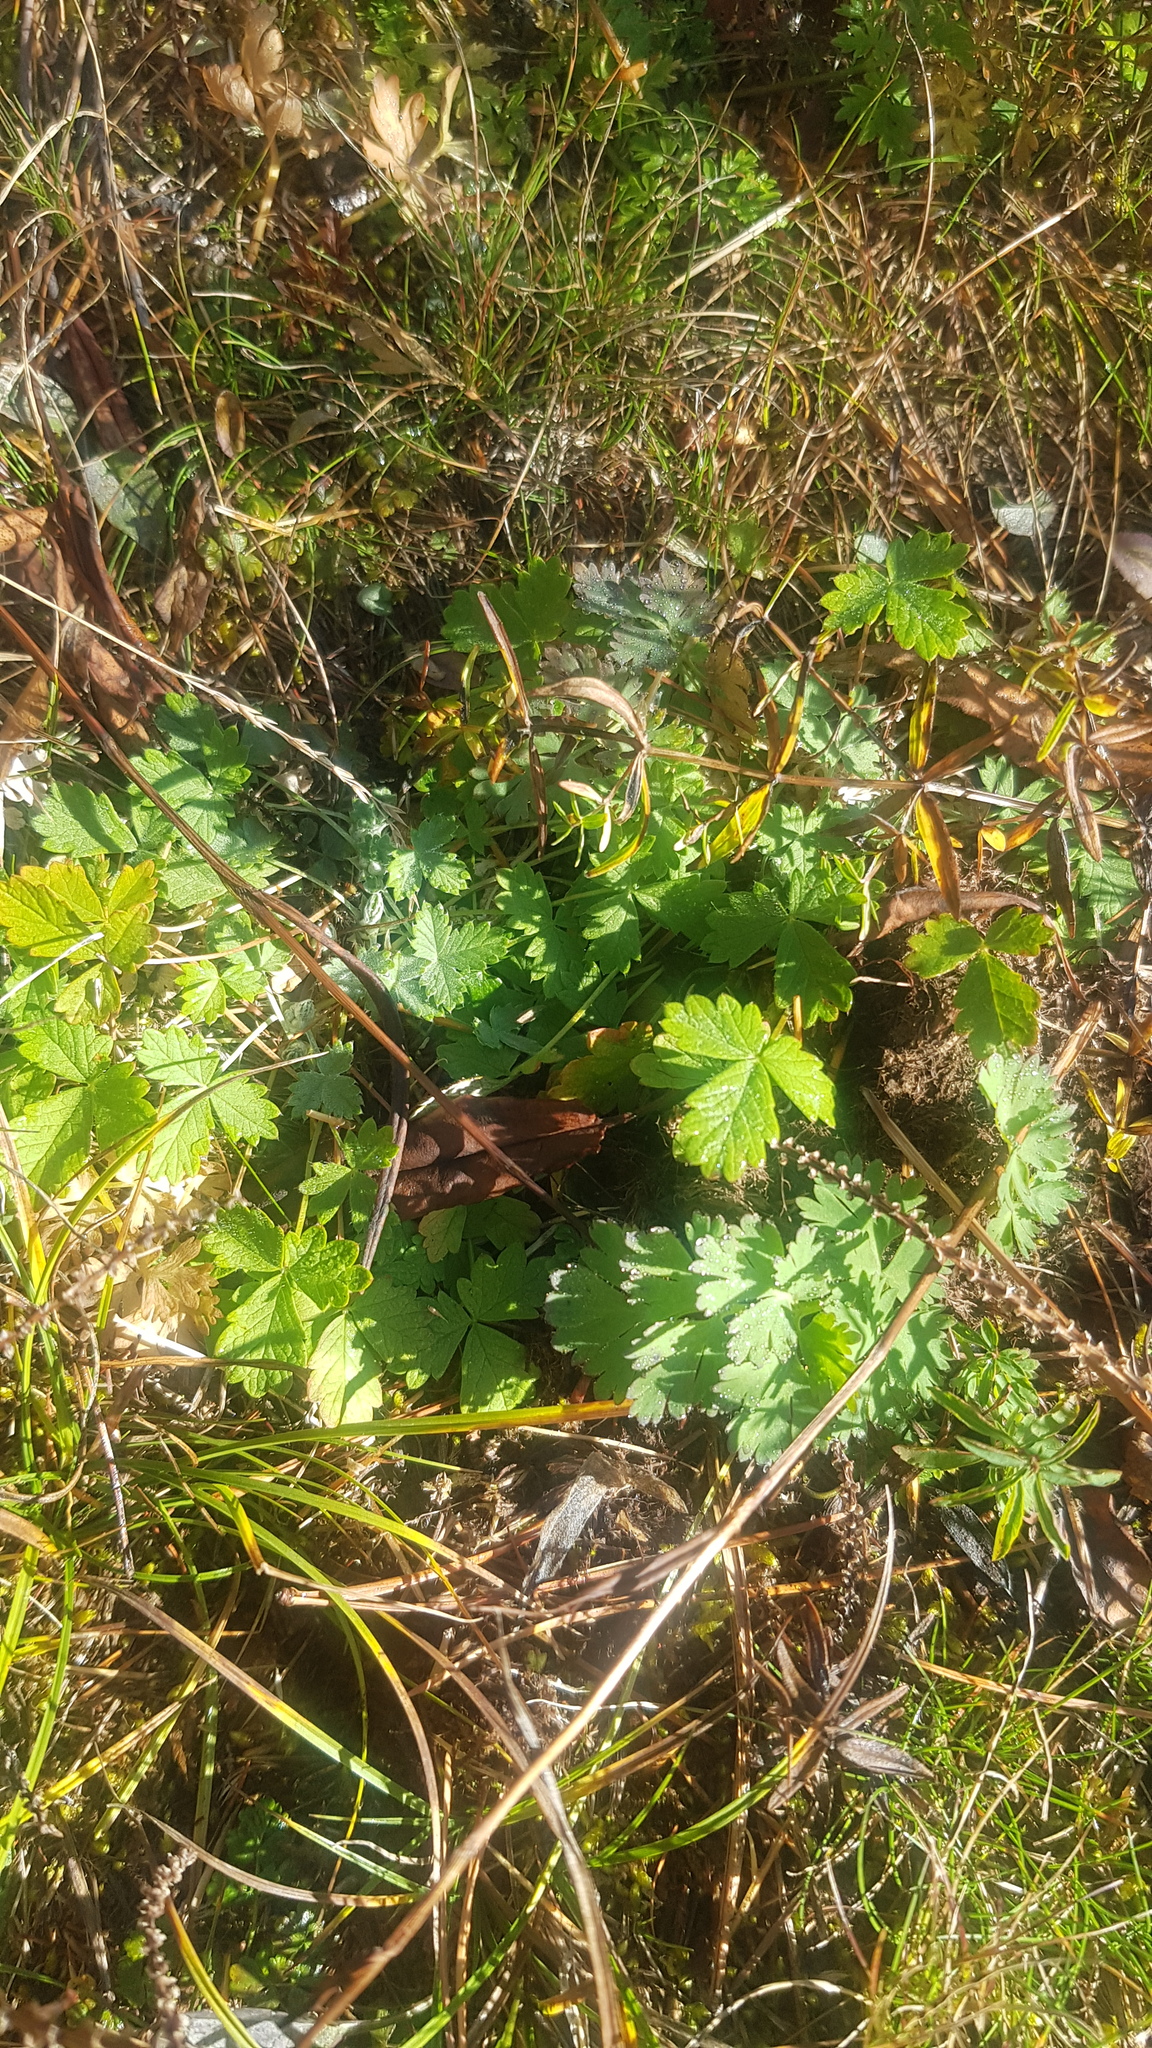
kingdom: Plantae
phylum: Tracheophyta
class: Magnoliopsida
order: Rosales
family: Rosaceae
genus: Potentilla
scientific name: Potentilla nivea
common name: Snow cinquefoil
